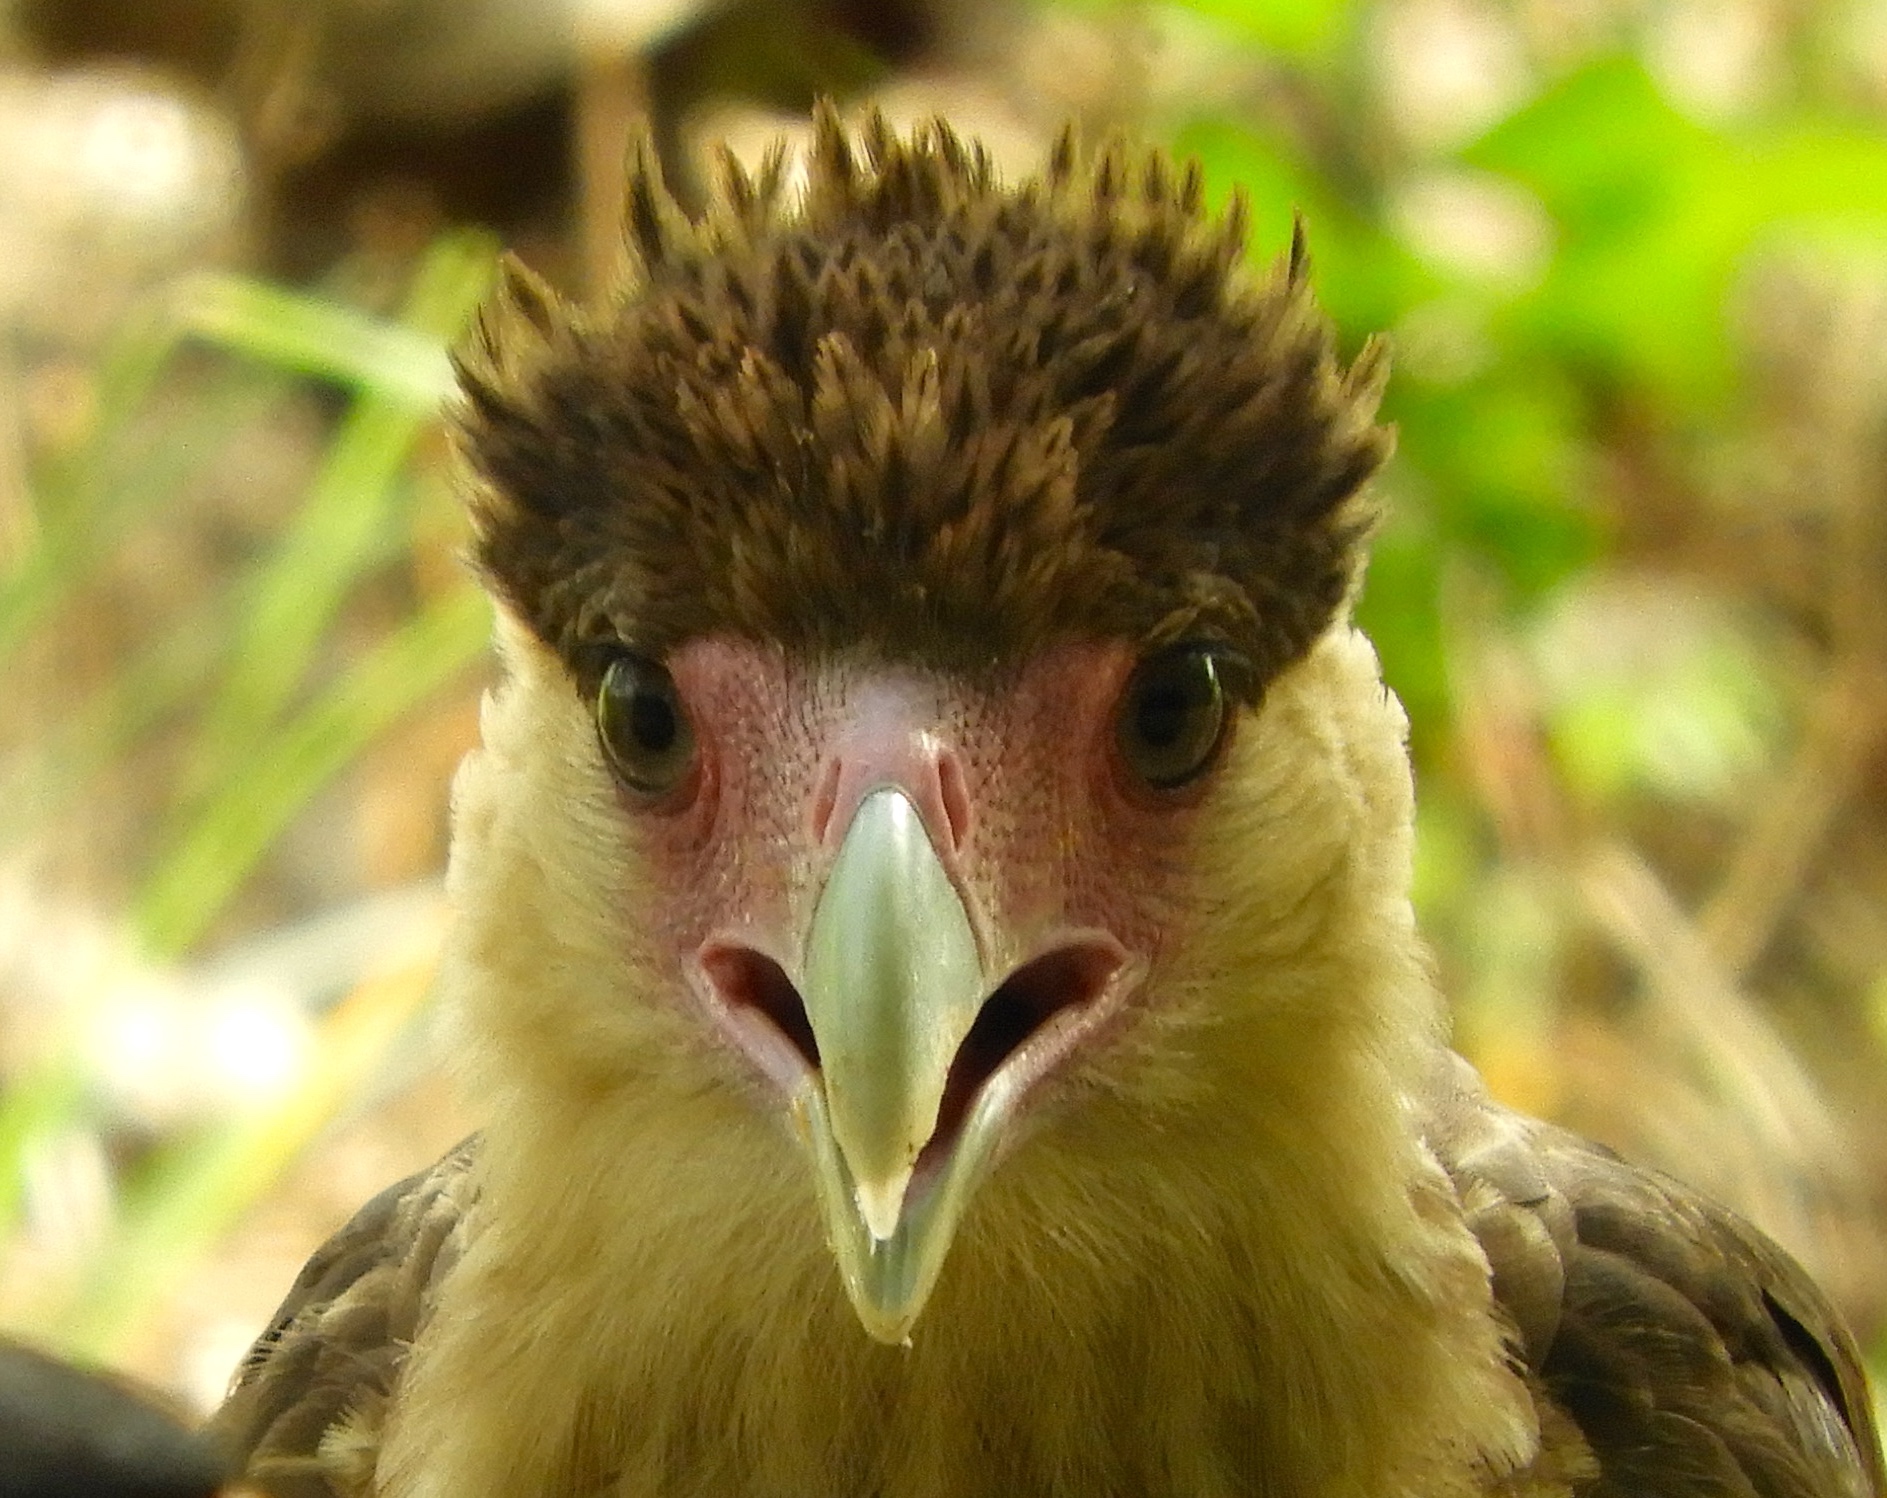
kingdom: Animalia
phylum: Chordata
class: Aves
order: Falconiformes
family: Falconidae
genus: Caracara
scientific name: Caracara plancus
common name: Southern caracara
